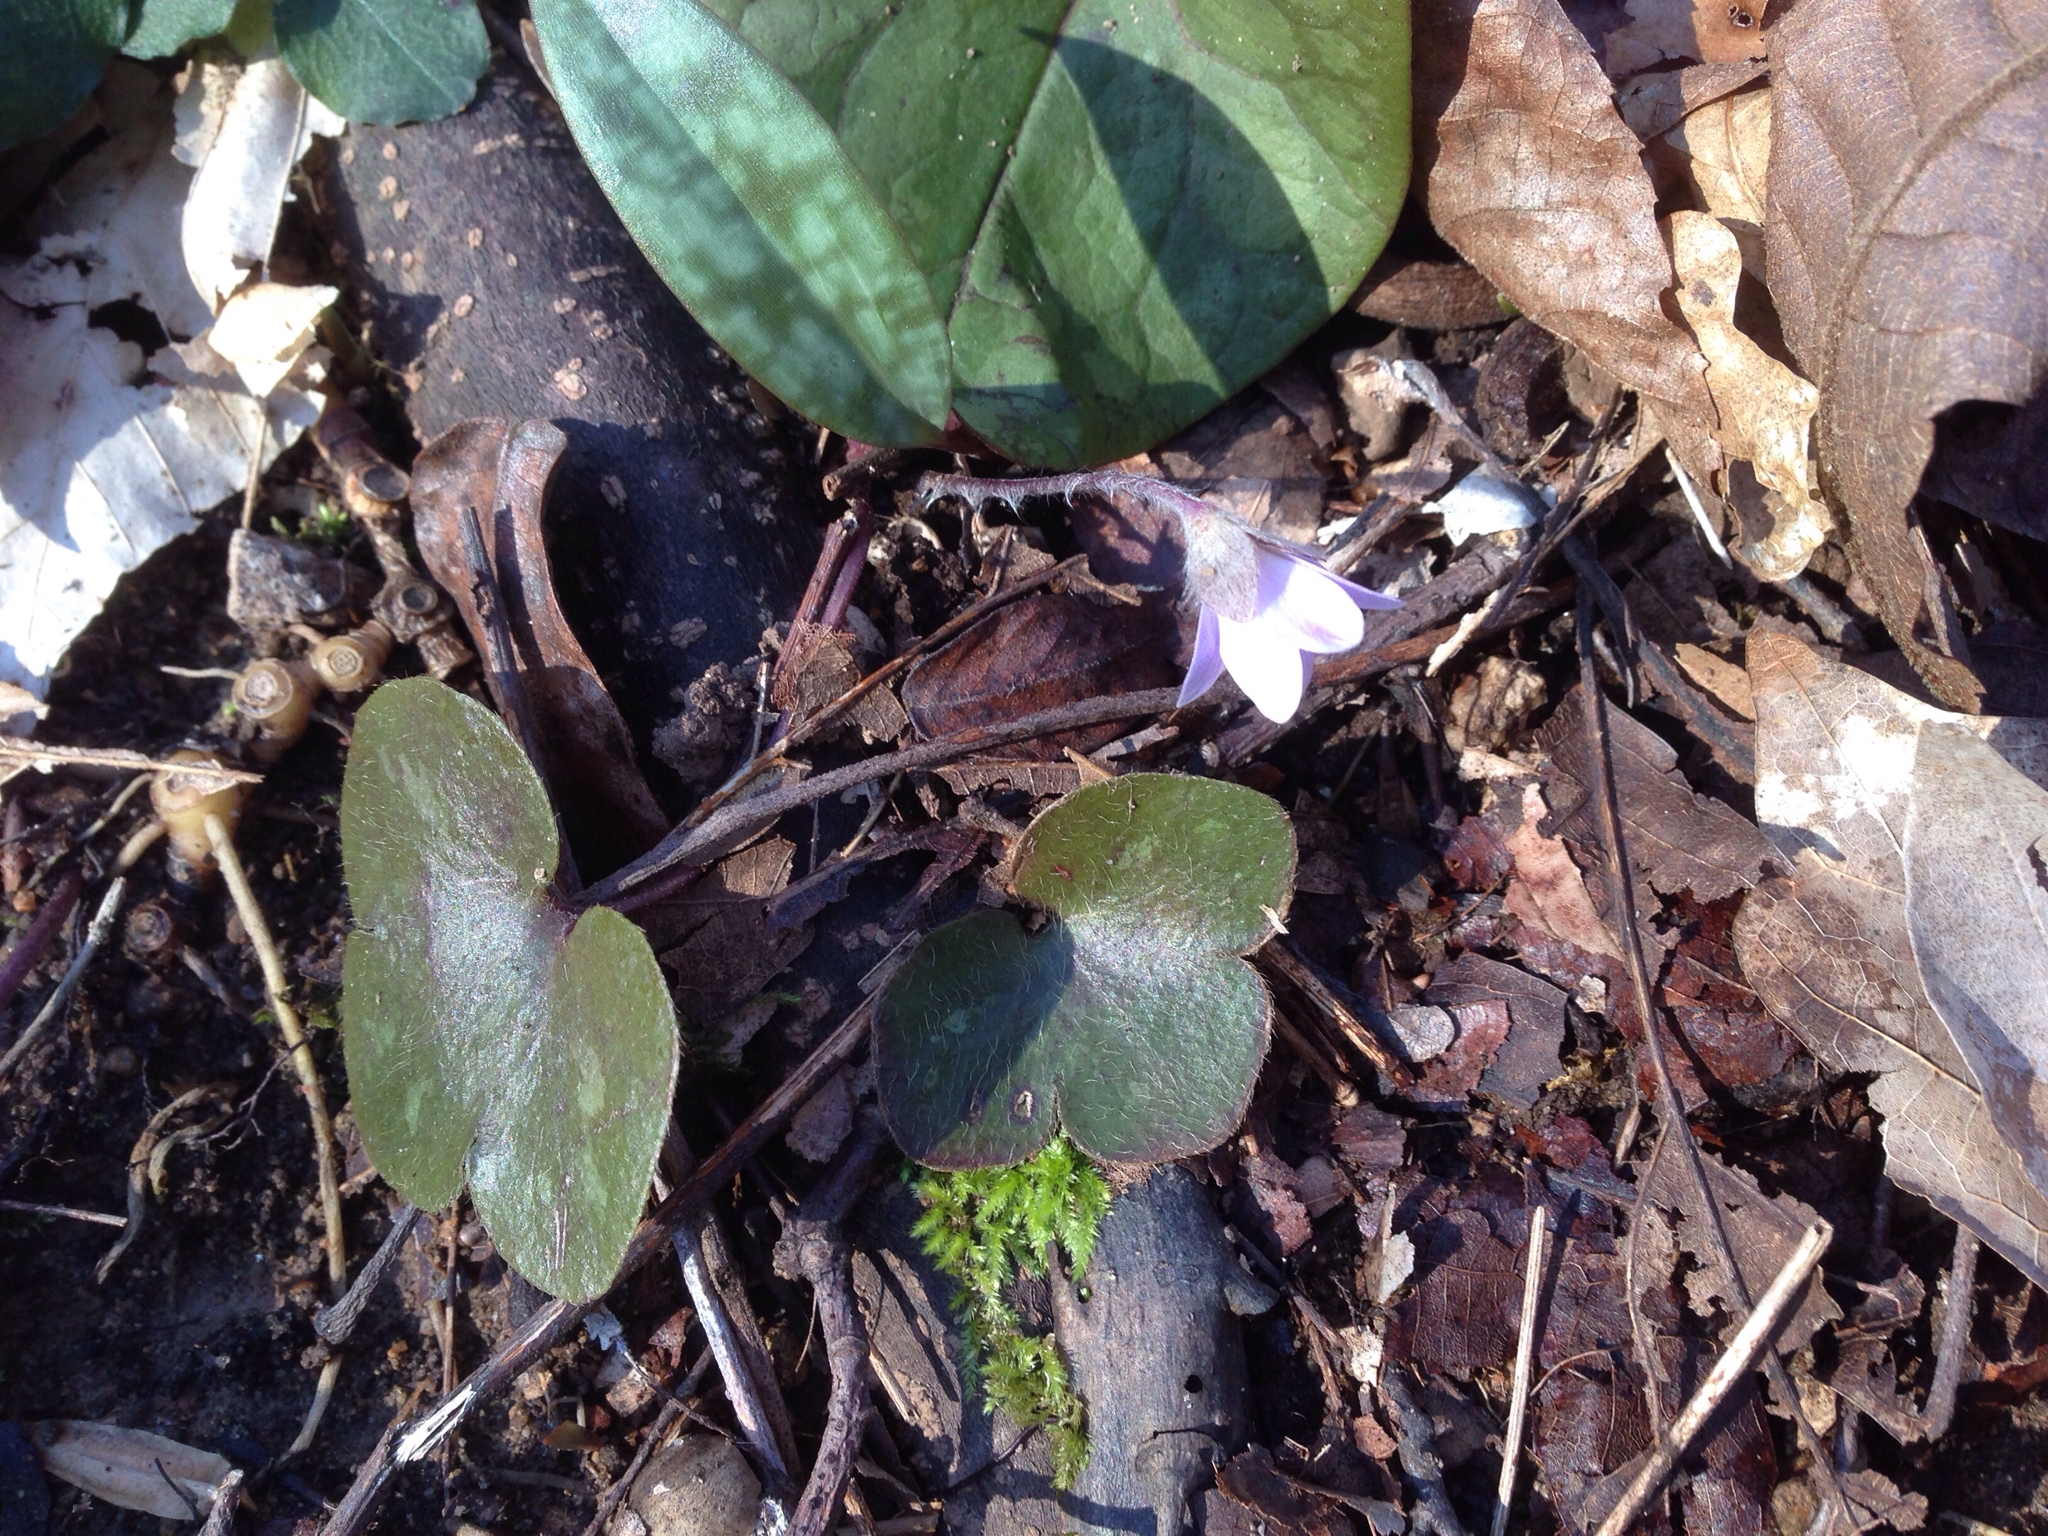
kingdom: Plantae
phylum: Tracheophyta
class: Magnoliopsida
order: Ranunculales
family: Ranunculaceae
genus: Hepatica
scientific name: Hepatica americana
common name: American hepatica
